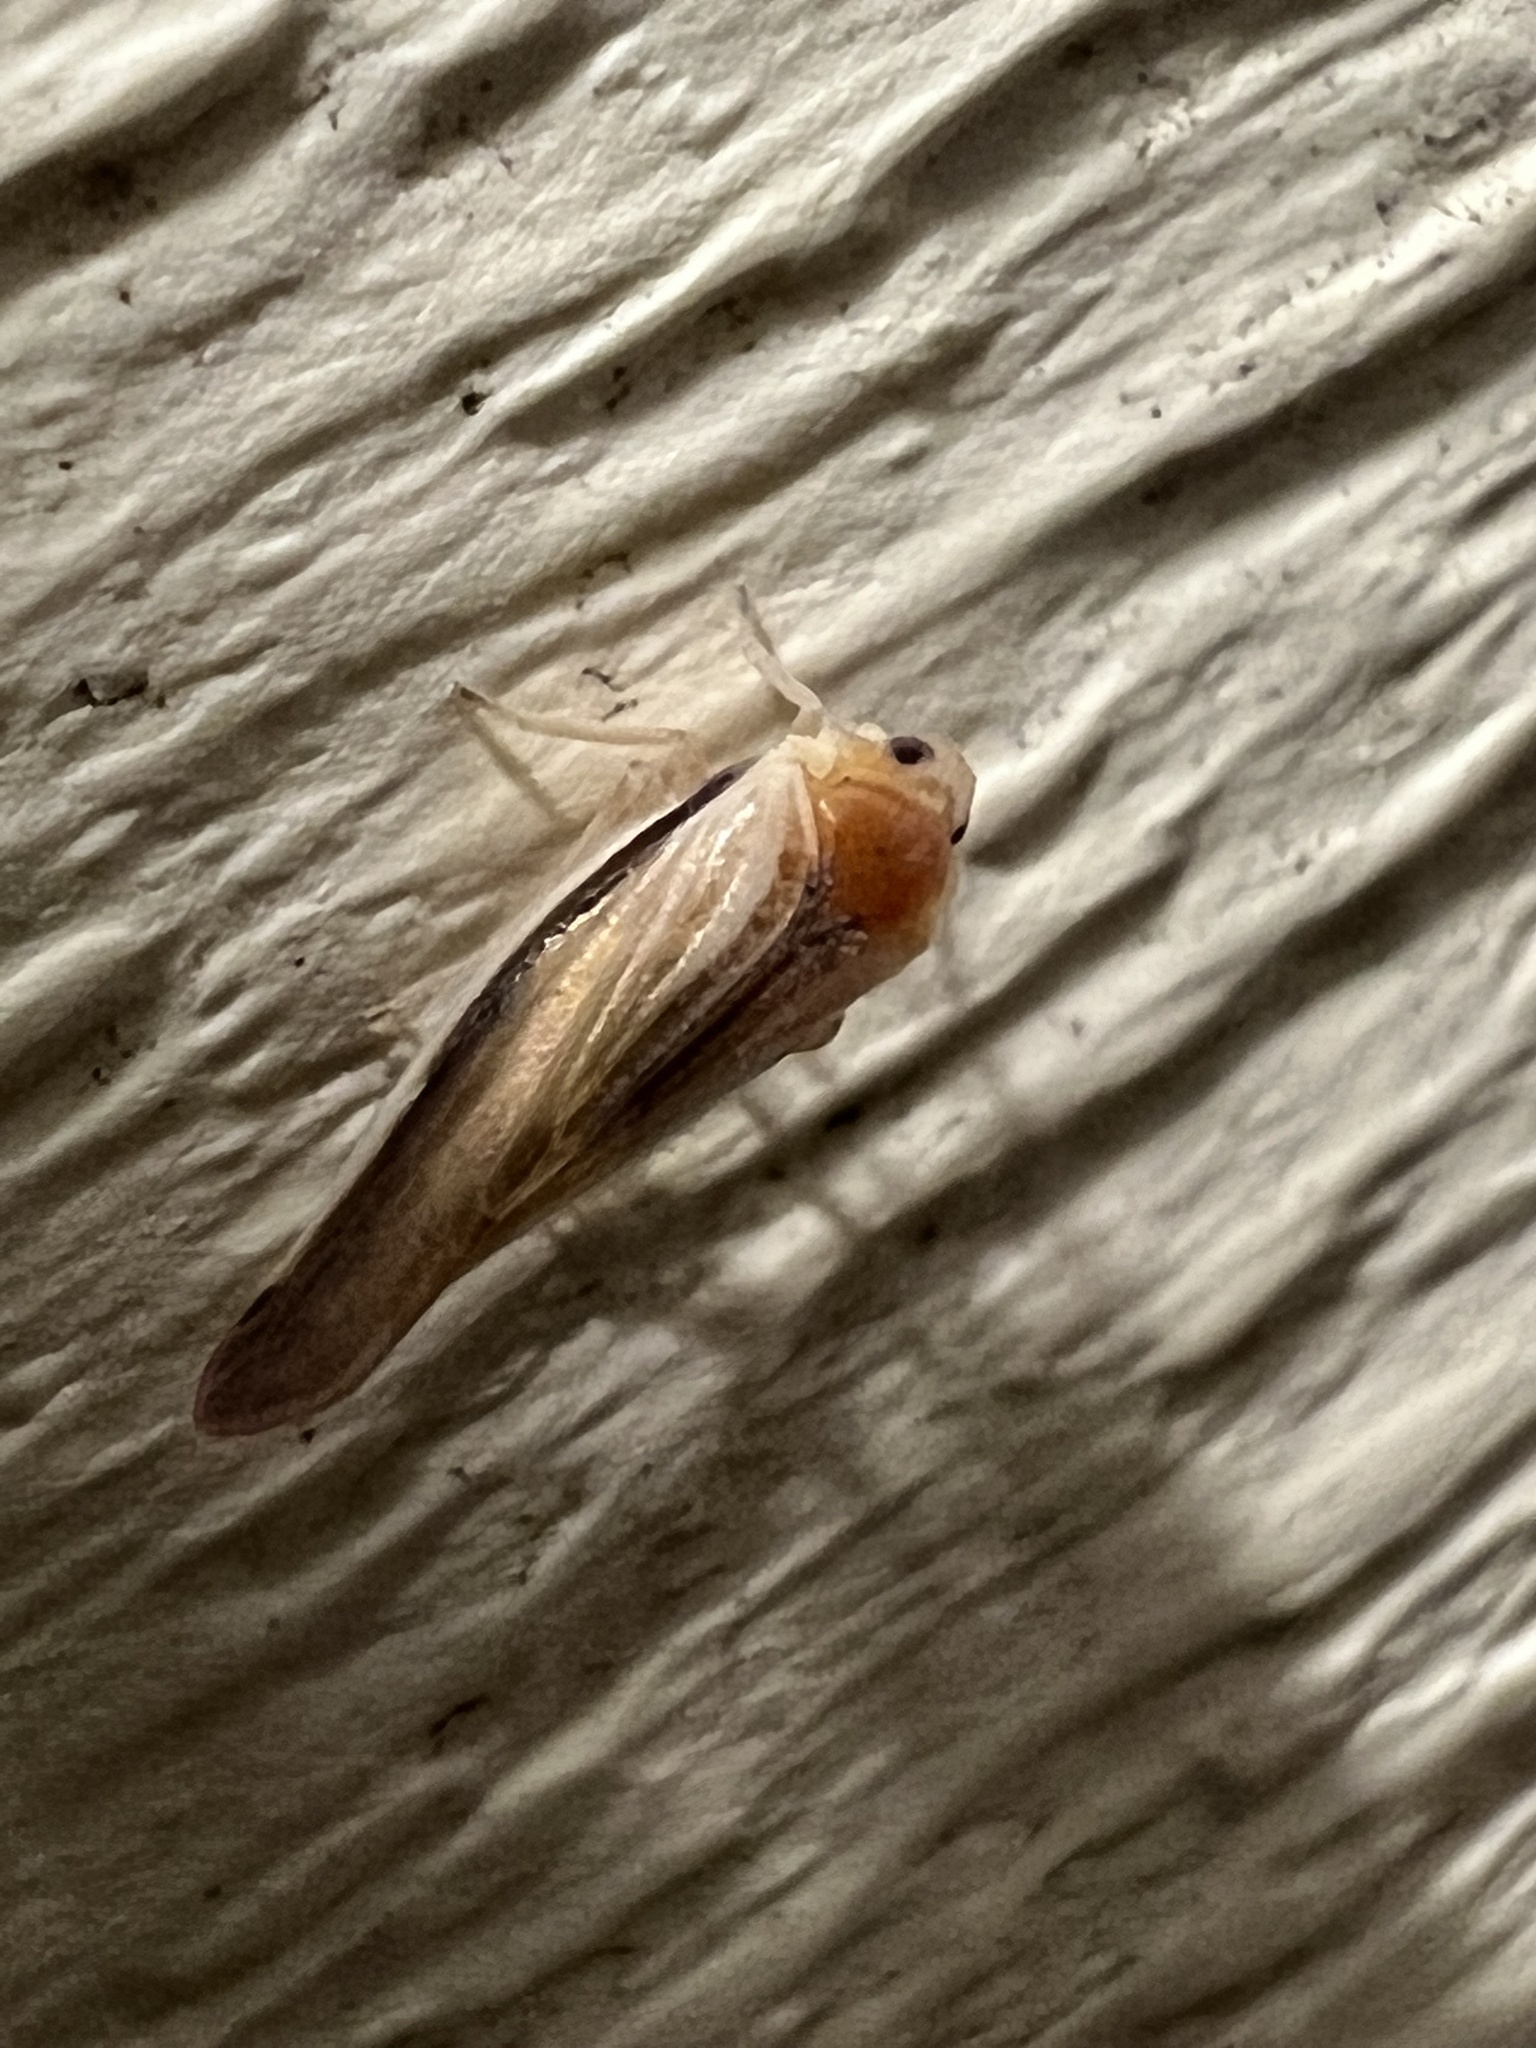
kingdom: Animalia
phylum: Arthropoda
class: Insecta
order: Hemiptera
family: Derbidae
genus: Omolicna
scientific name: Omolicna uhleri
